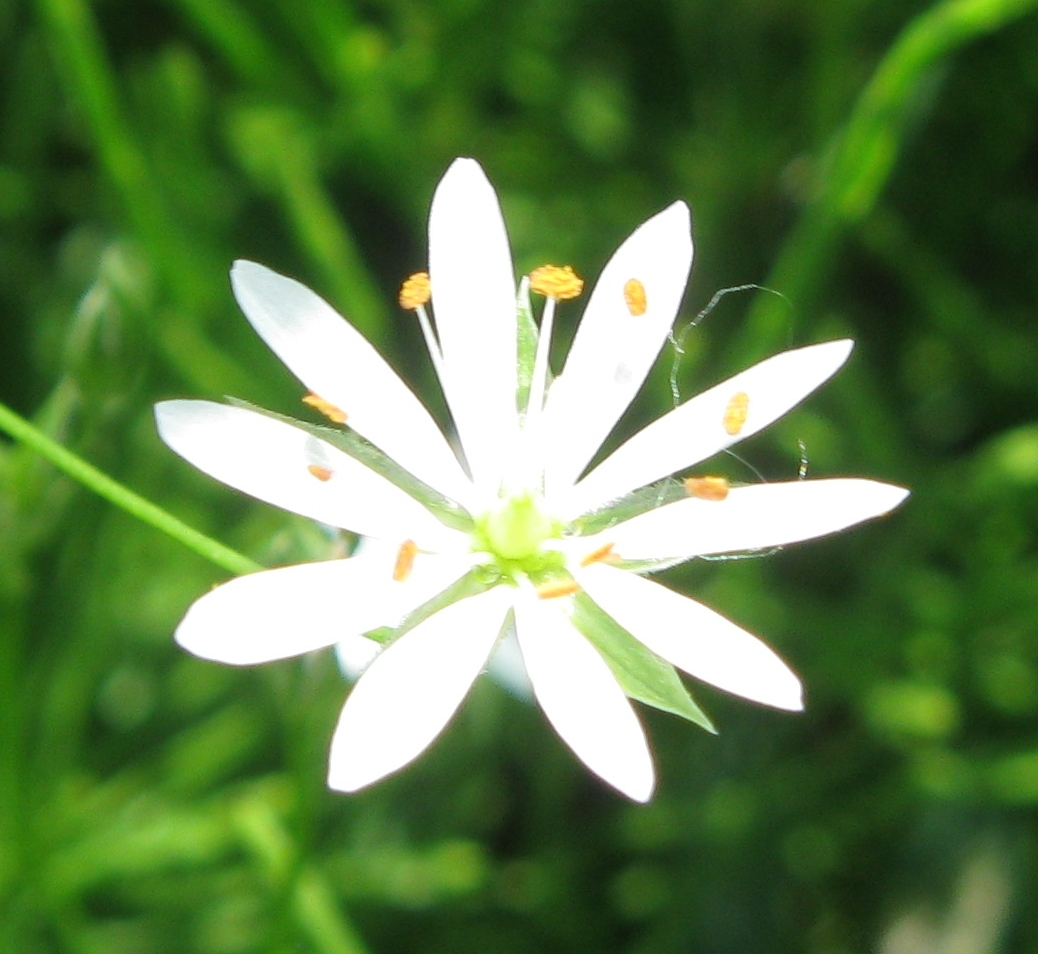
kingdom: Plantae
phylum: Tracheophyta
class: Magnoliopsida
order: Caryophyllales
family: Caryophyllaceae
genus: Stellaria
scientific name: Stellaria graminea
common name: Grass-like starwort
